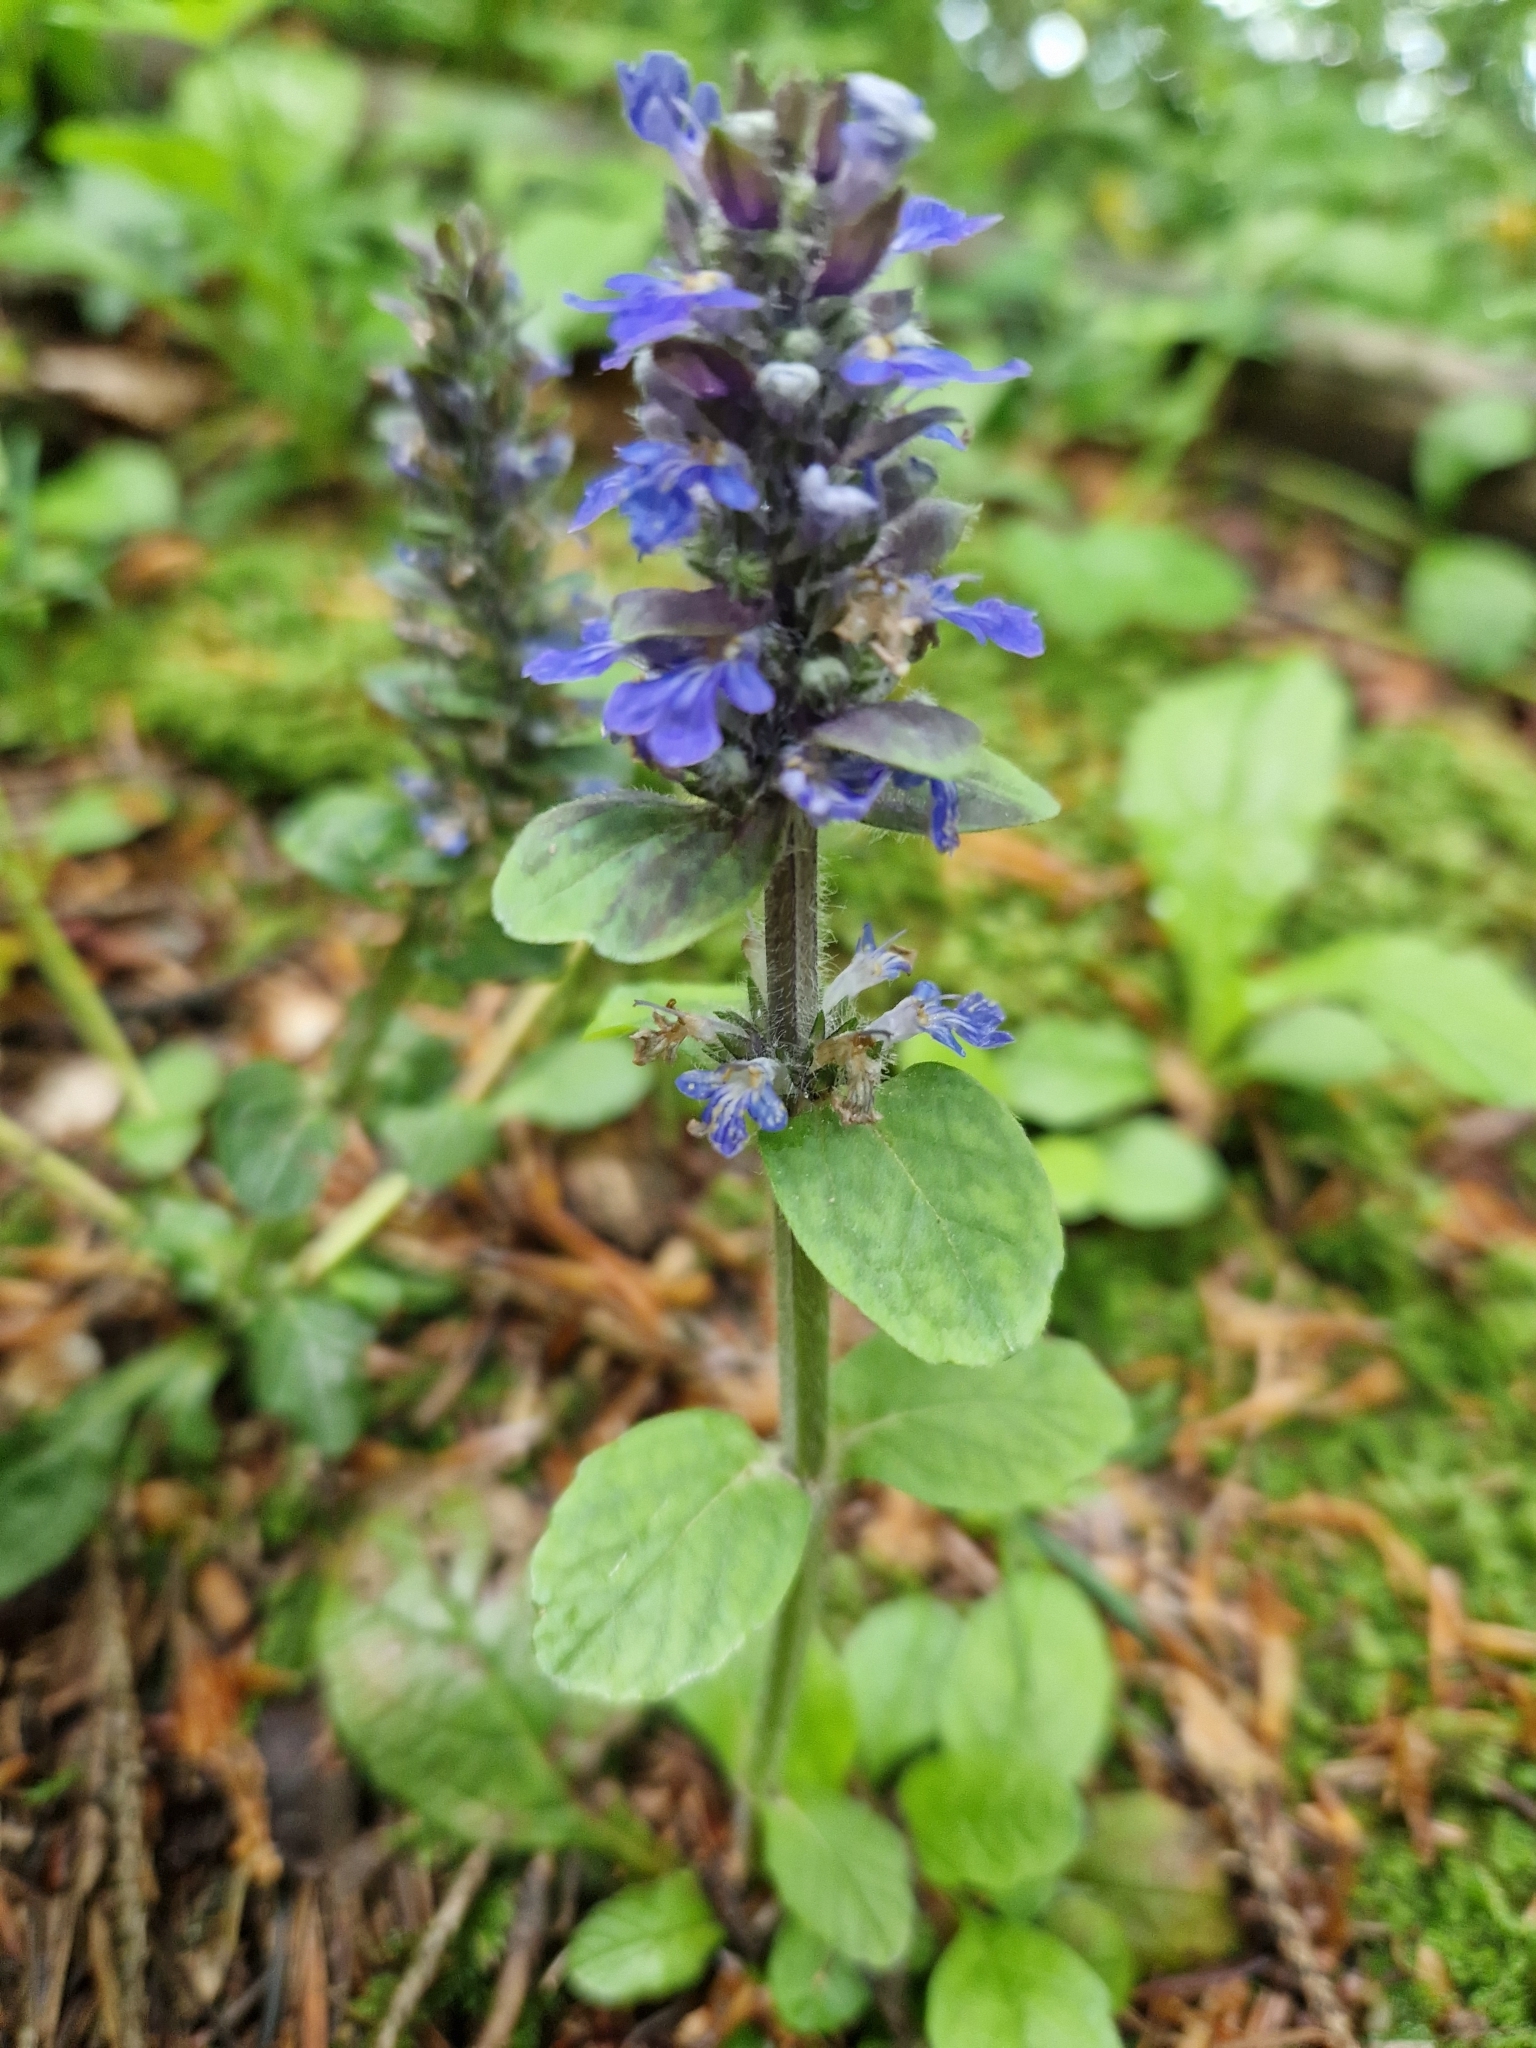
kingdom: Plantae
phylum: Tracheophyta
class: Magnoliopsida
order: Lamiales
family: Lamiaceae
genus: Ajuga
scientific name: Ajuga reptans
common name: Bugle
